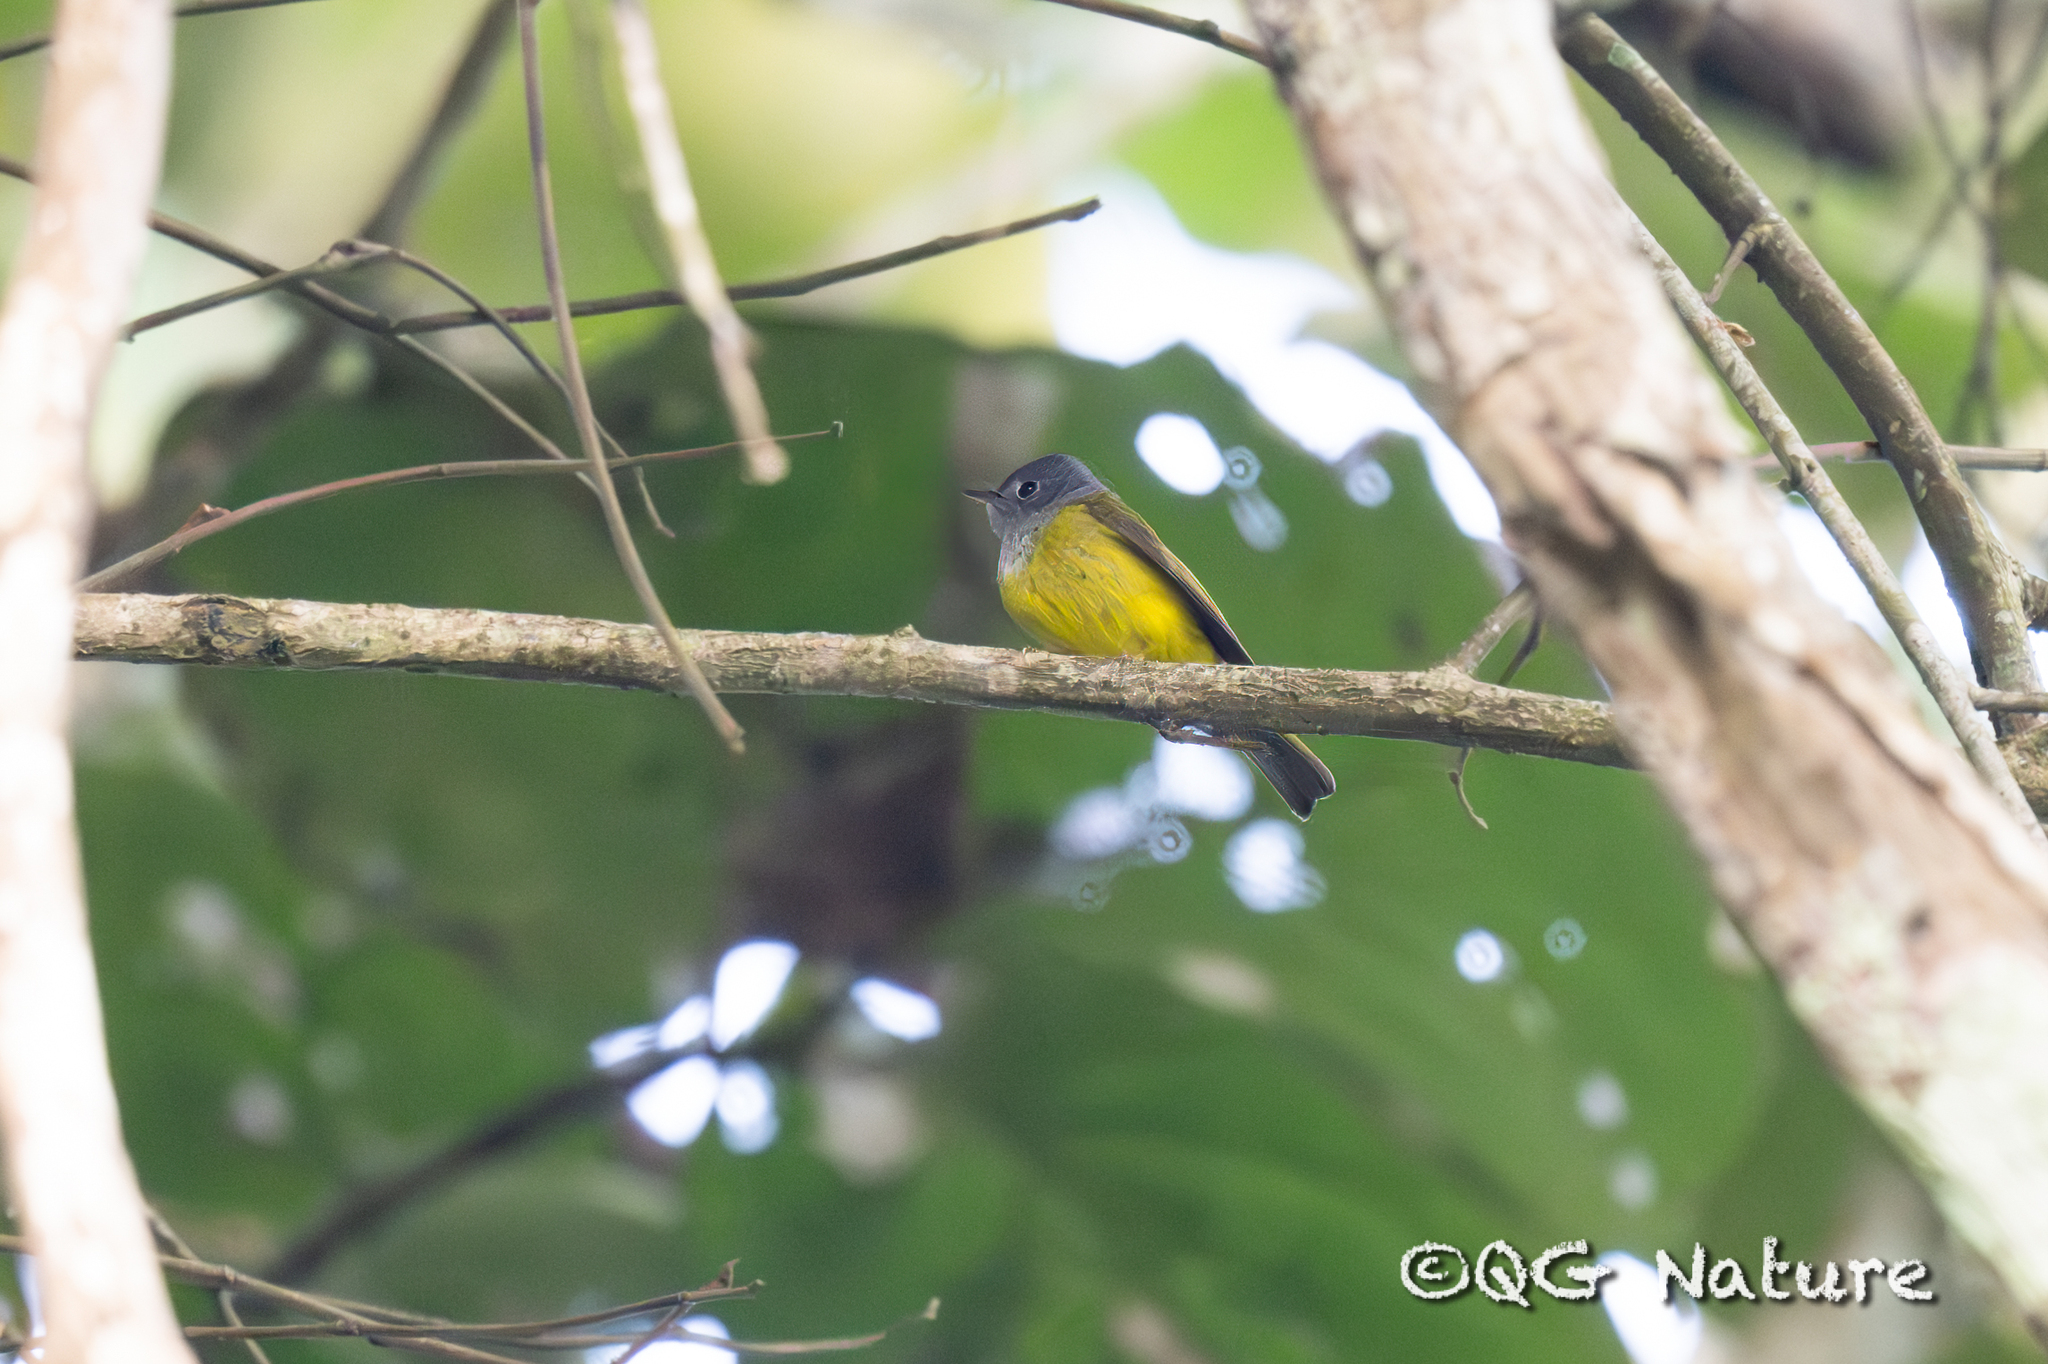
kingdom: Animalia
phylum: Chordata
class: Aves
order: Passeriformes
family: Stenostiridae
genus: Culicicapa
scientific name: Culicicapa ceylonensis
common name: Grey-headed canary-flycatcher
